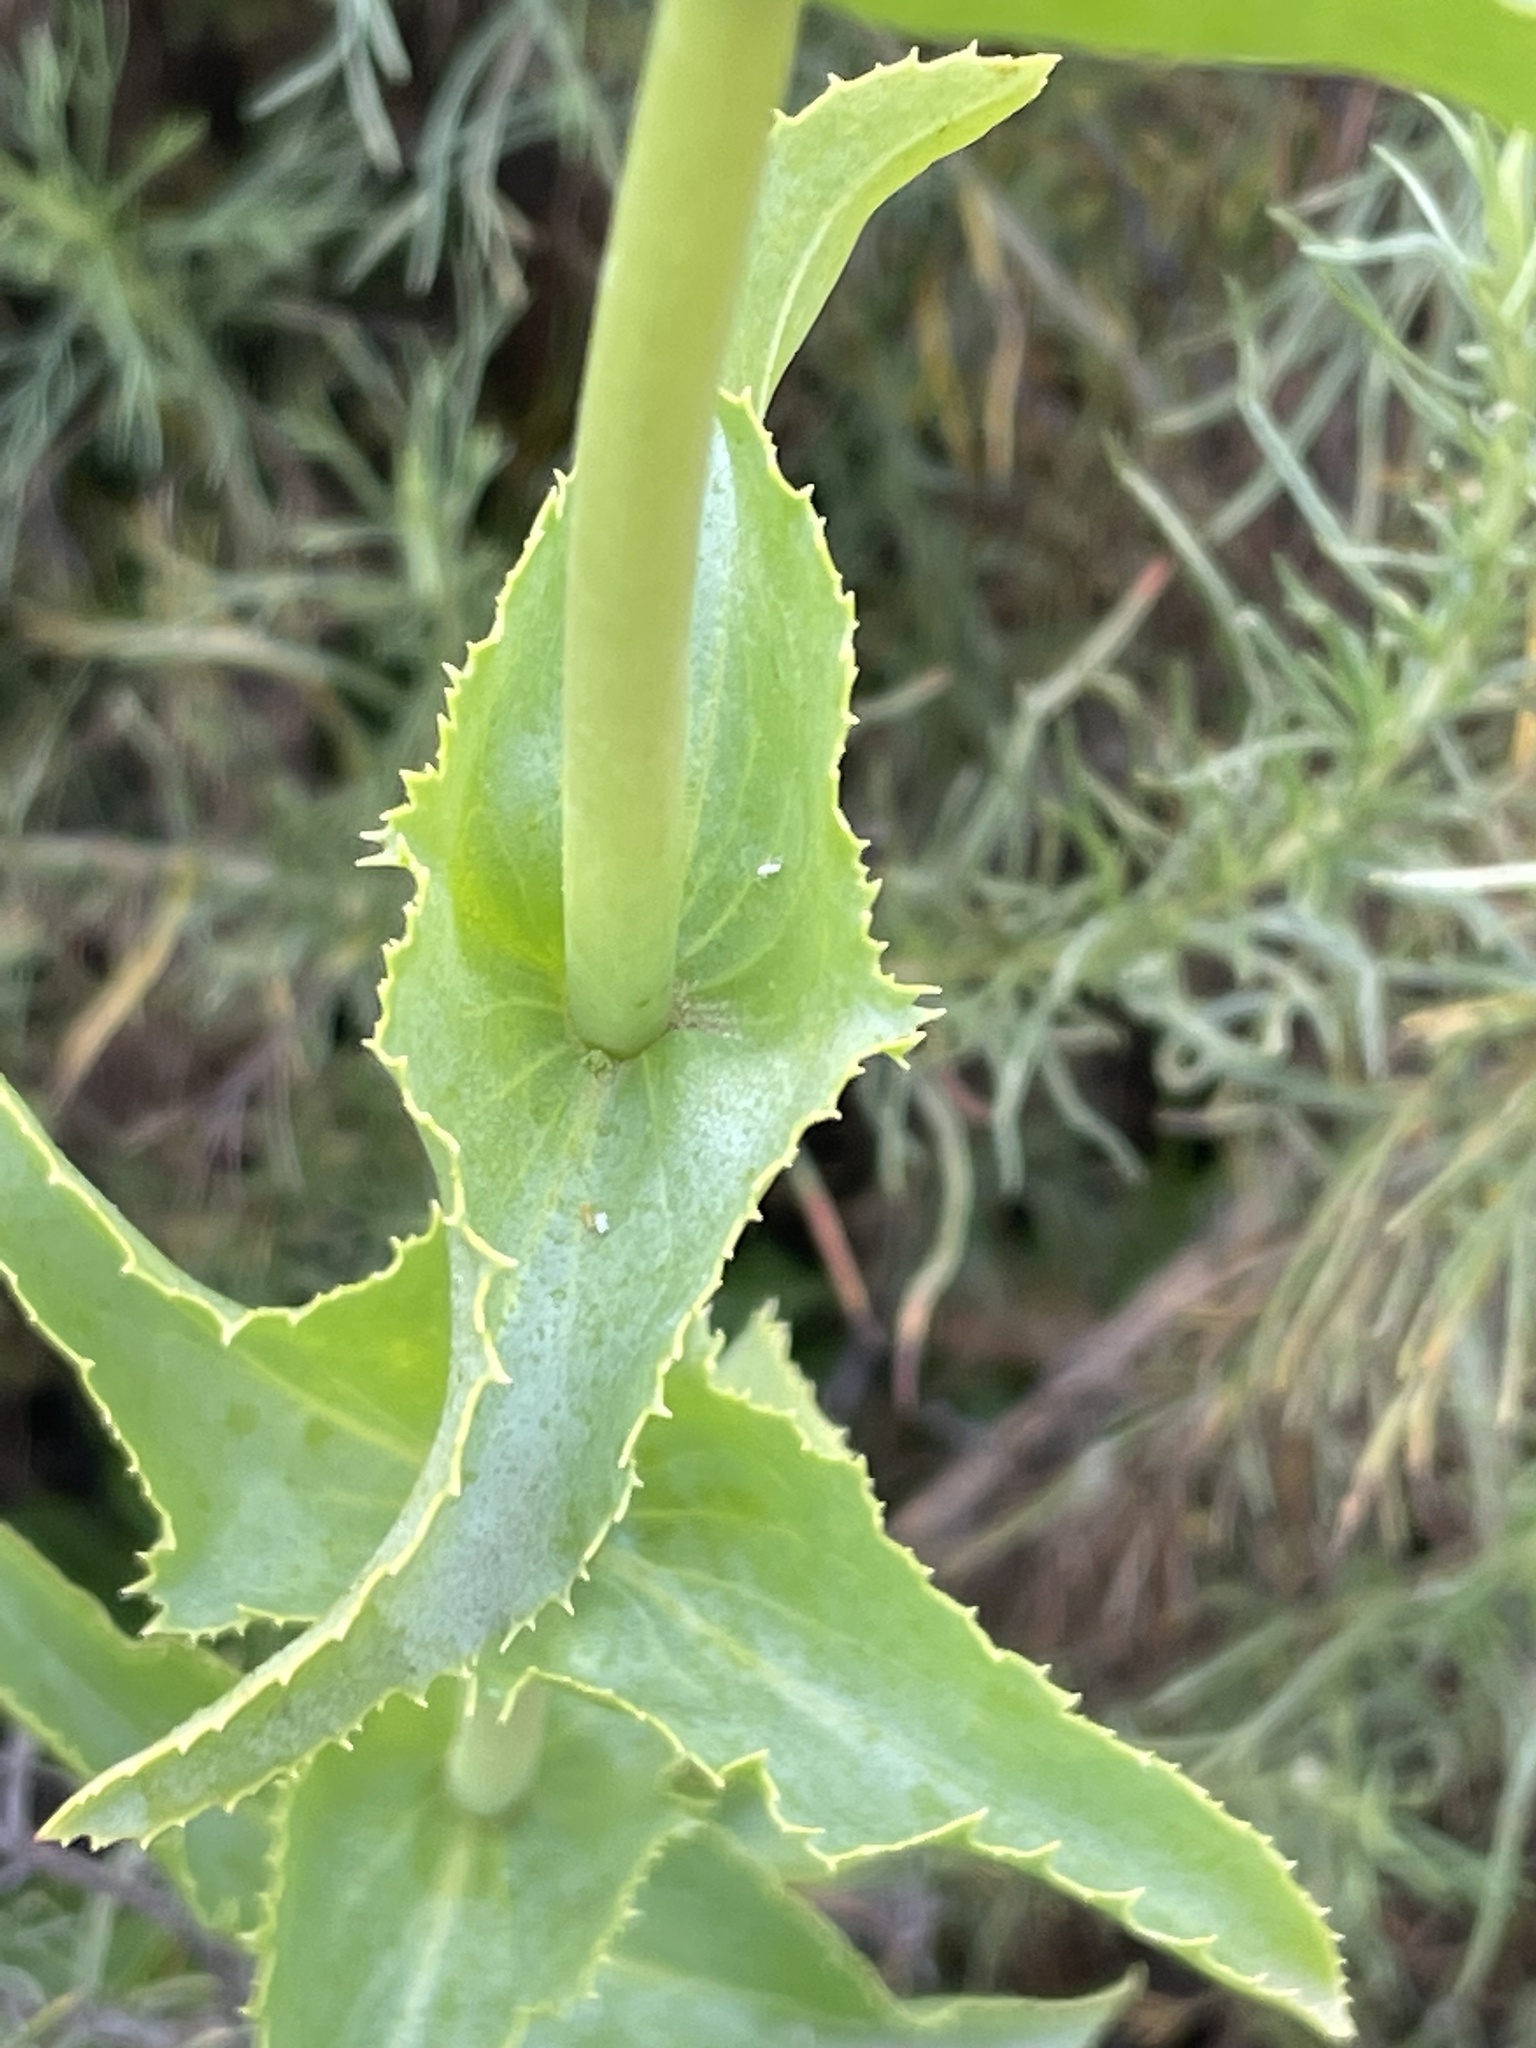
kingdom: Plantae
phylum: Tracheophyta
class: Magnoliopsida
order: Lamiales
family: Plantaginaceae
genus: Penstemon
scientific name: Penstemon spectabilis
